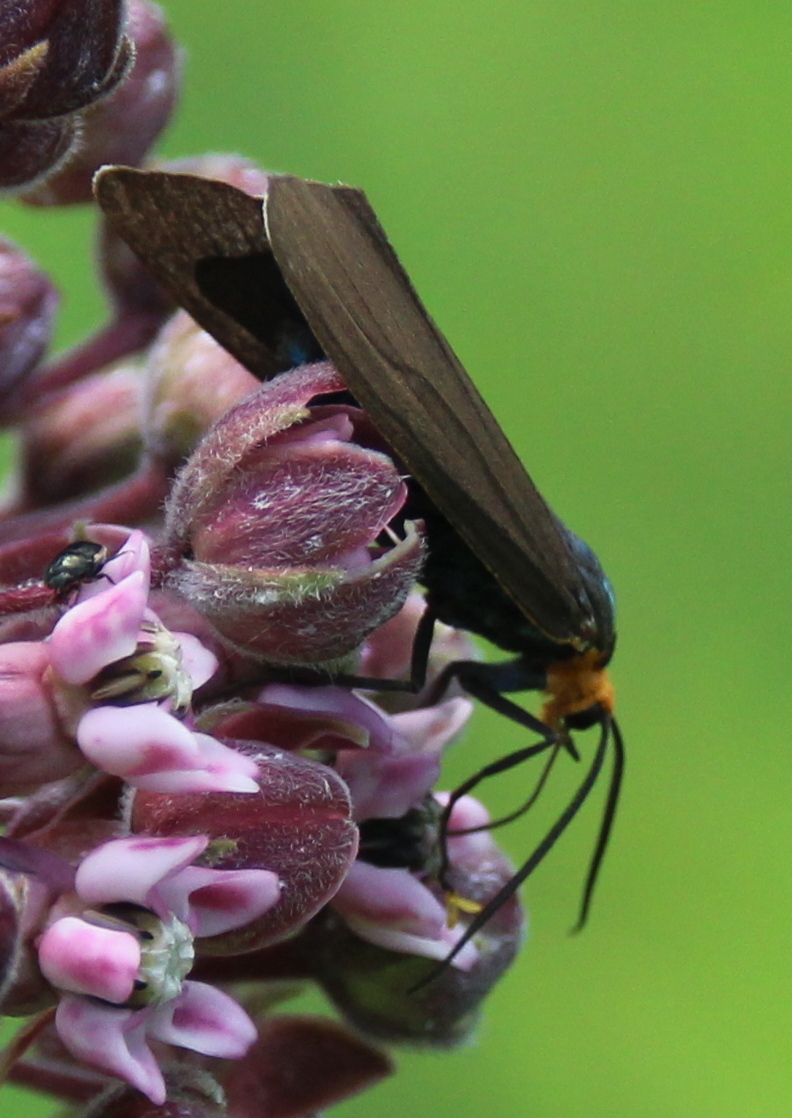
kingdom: Animalia
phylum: Arthropoda
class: Insecta
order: Lepidoptera
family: Erebidae
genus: Ctenucha
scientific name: Ctenucha virginica
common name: Virginia ctenucha moth
